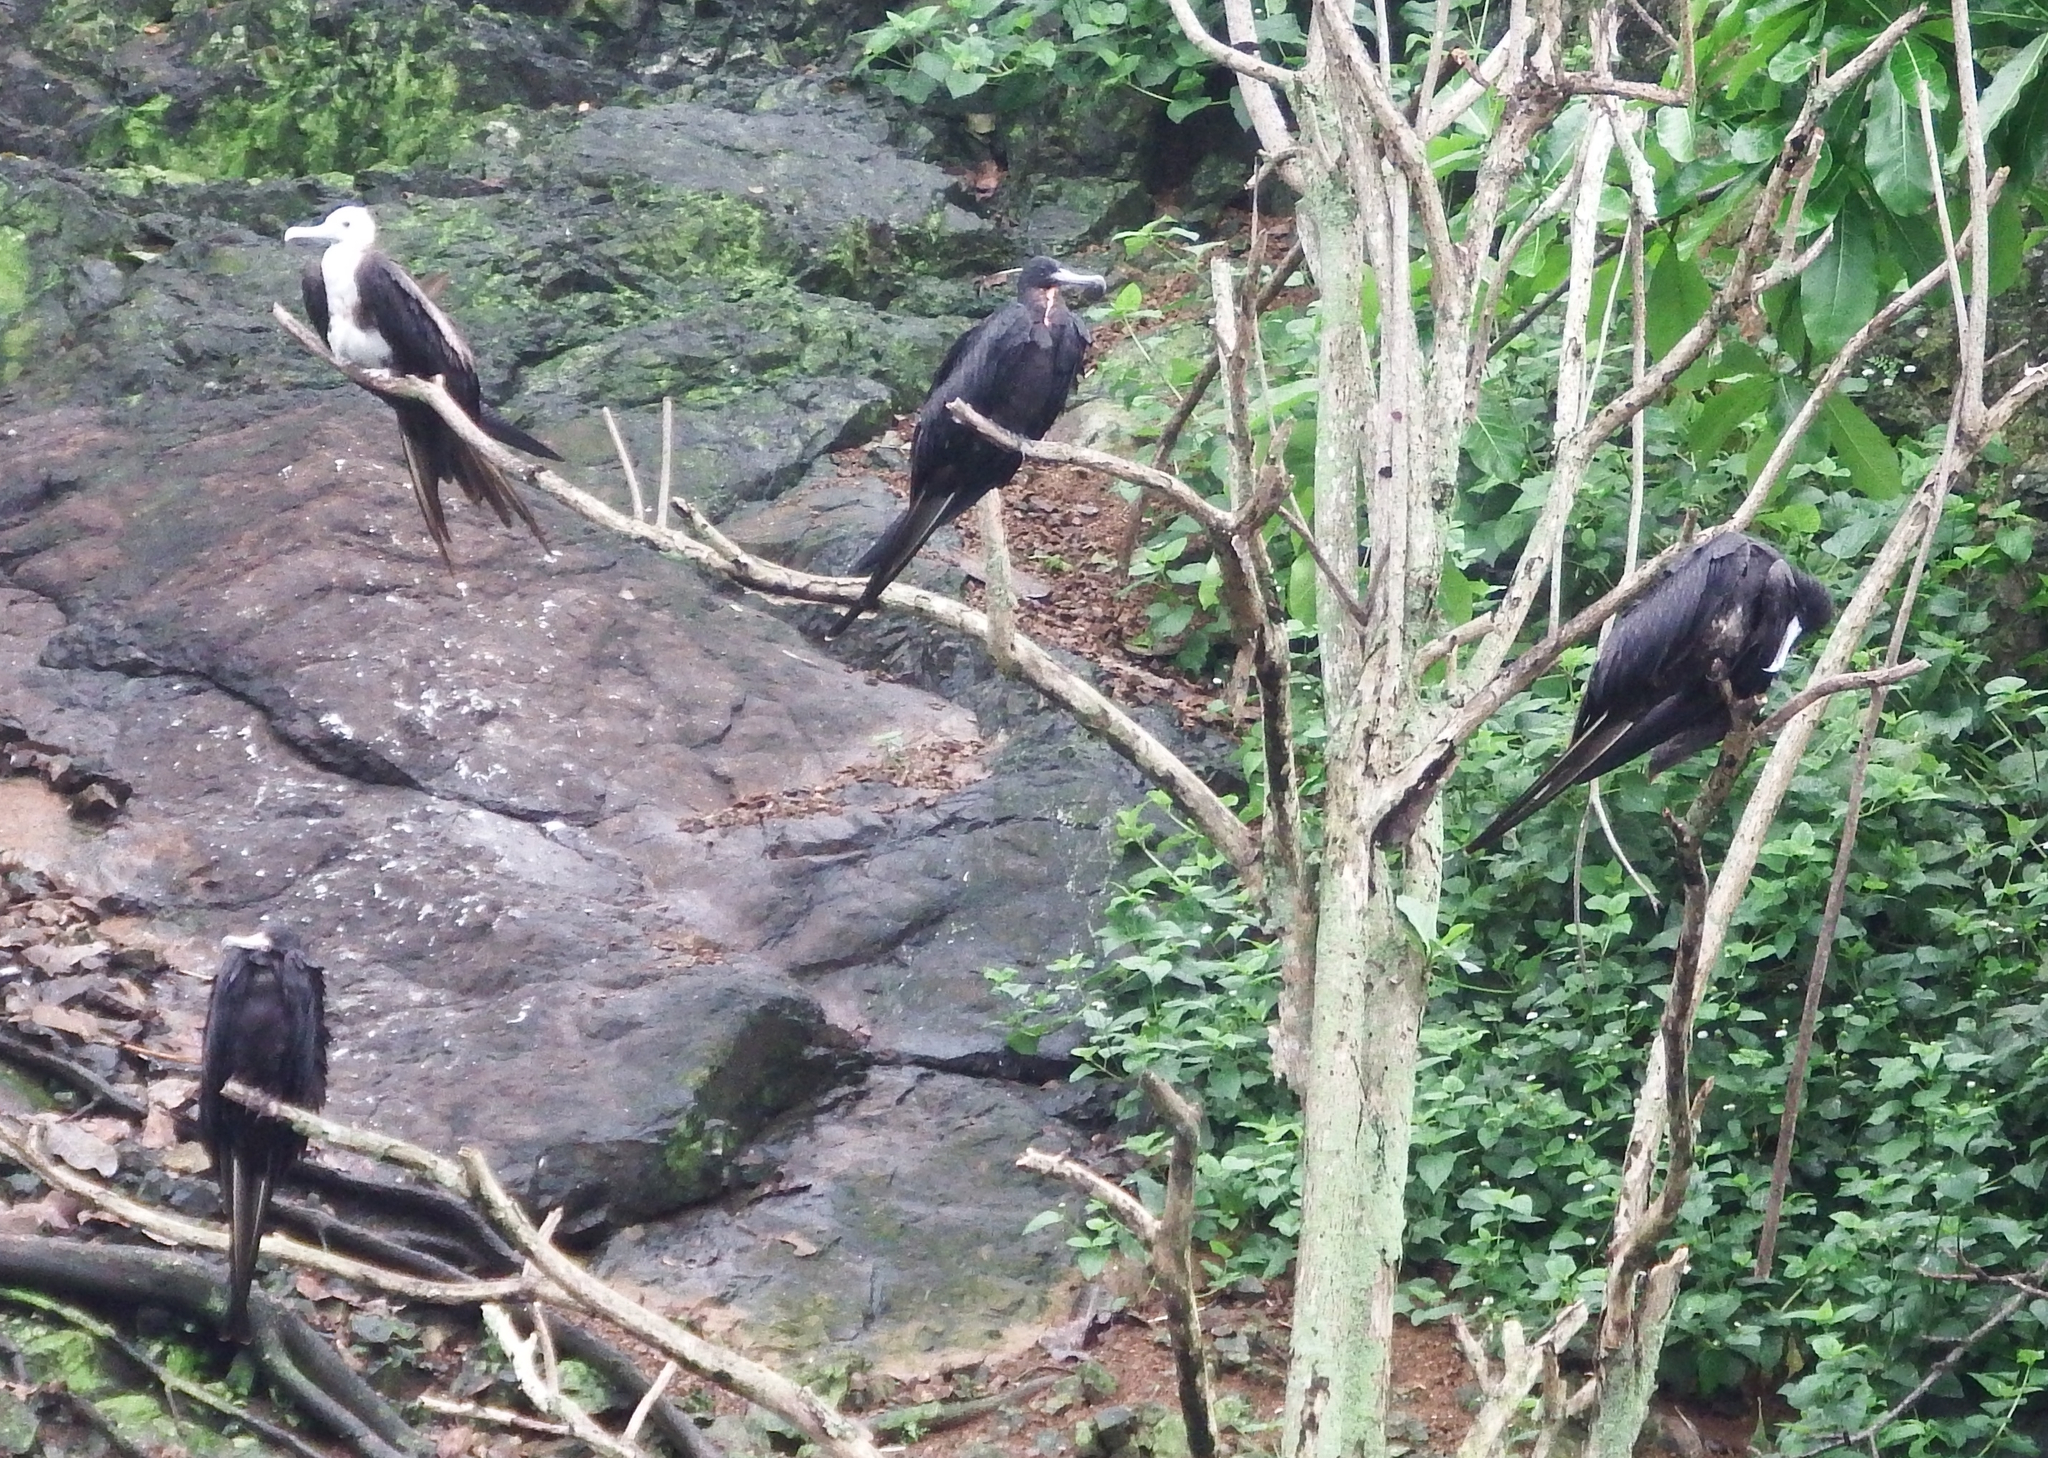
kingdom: Animalia
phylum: Chordata
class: Aves
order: Suliformes
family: Fregatidae
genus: Fregata
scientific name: Fregata magnificens
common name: Magnificent frigatebird
